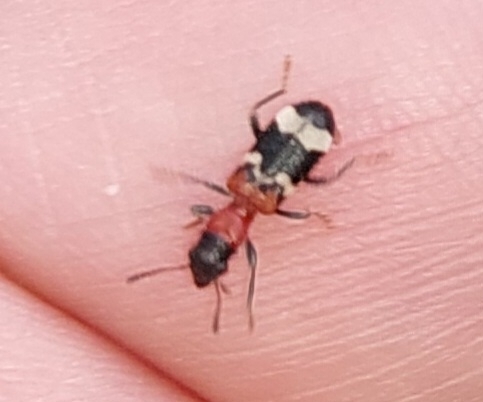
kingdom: Animalia
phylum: Arthropoda
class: Insecta
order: Coleoptera
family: Cleridae
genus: Thanasimus
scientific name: Thanasimus formicarius
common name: Ant beetle
